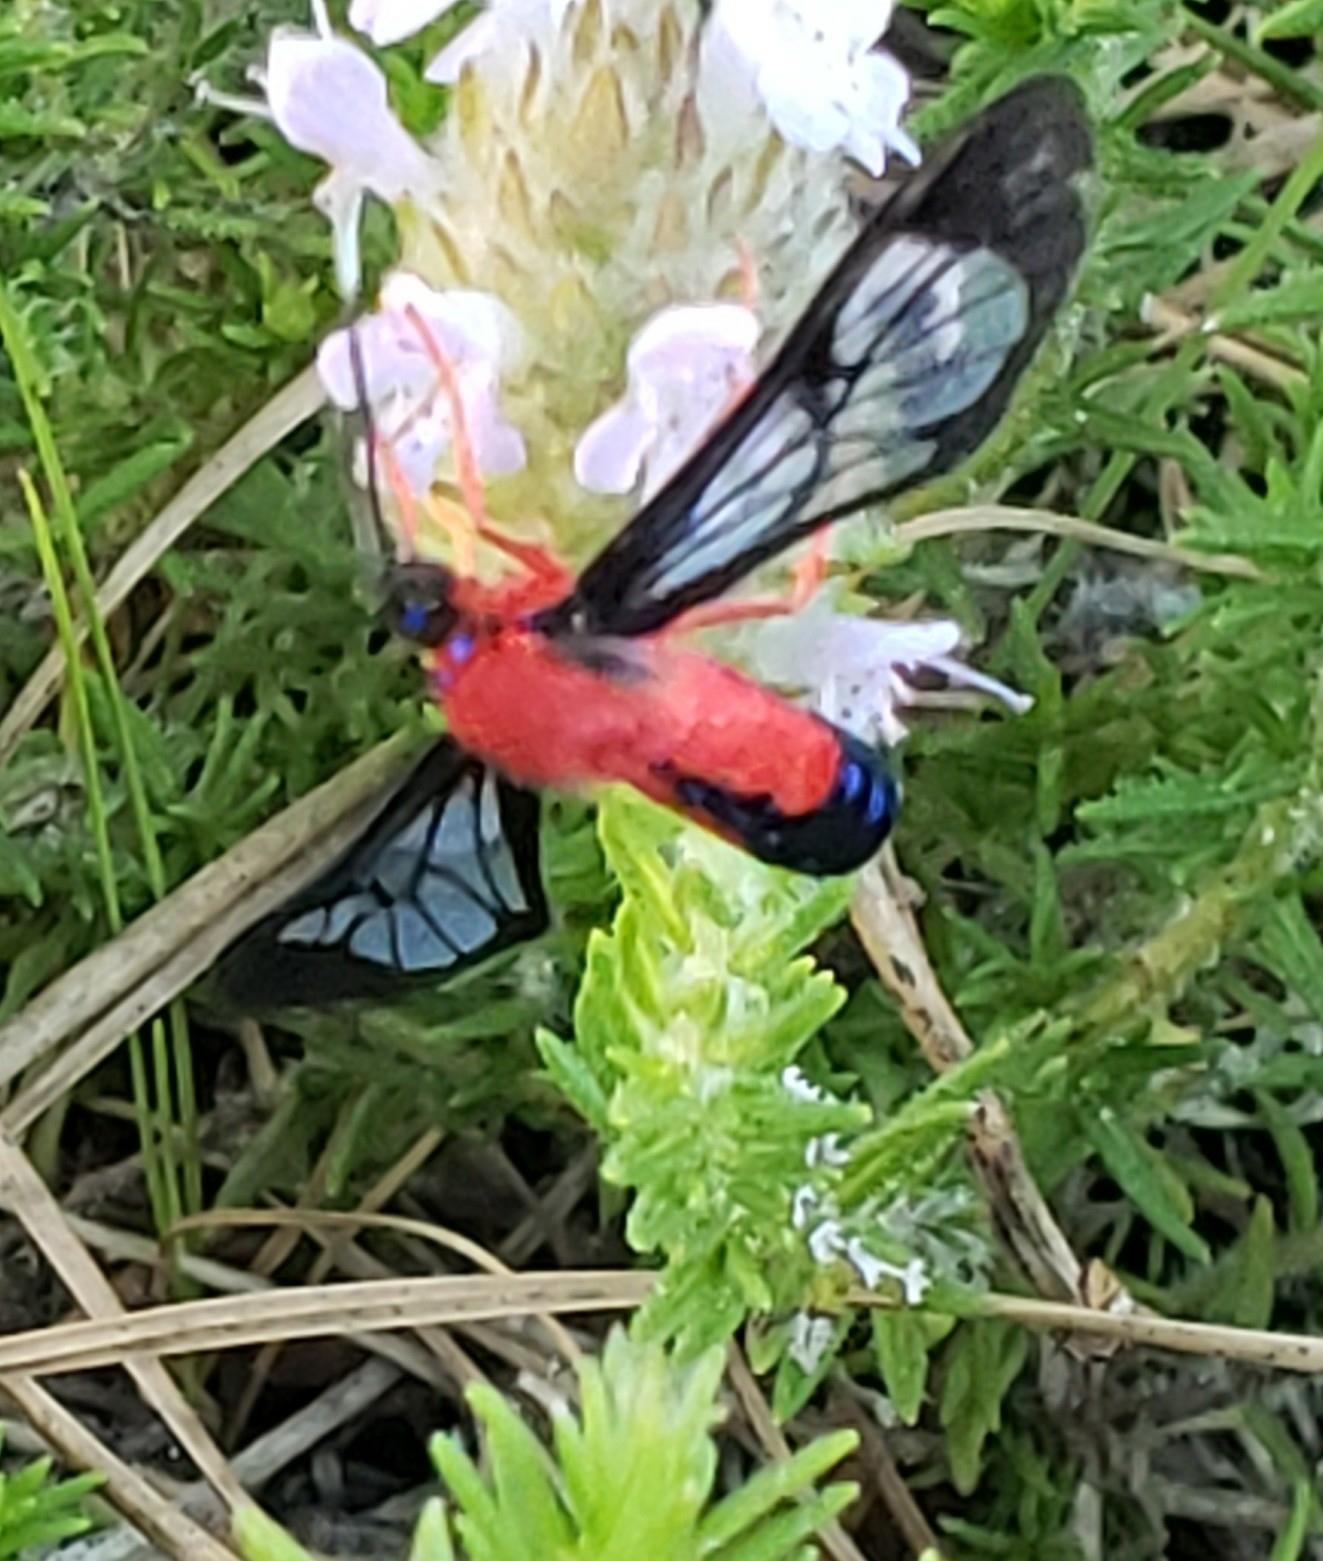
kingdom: Animalia
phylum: Arthropoda
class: Insecta
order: Lepidoptera
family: Erebidae
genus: Cosmosoma
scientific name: Cosmosoma myrodora
